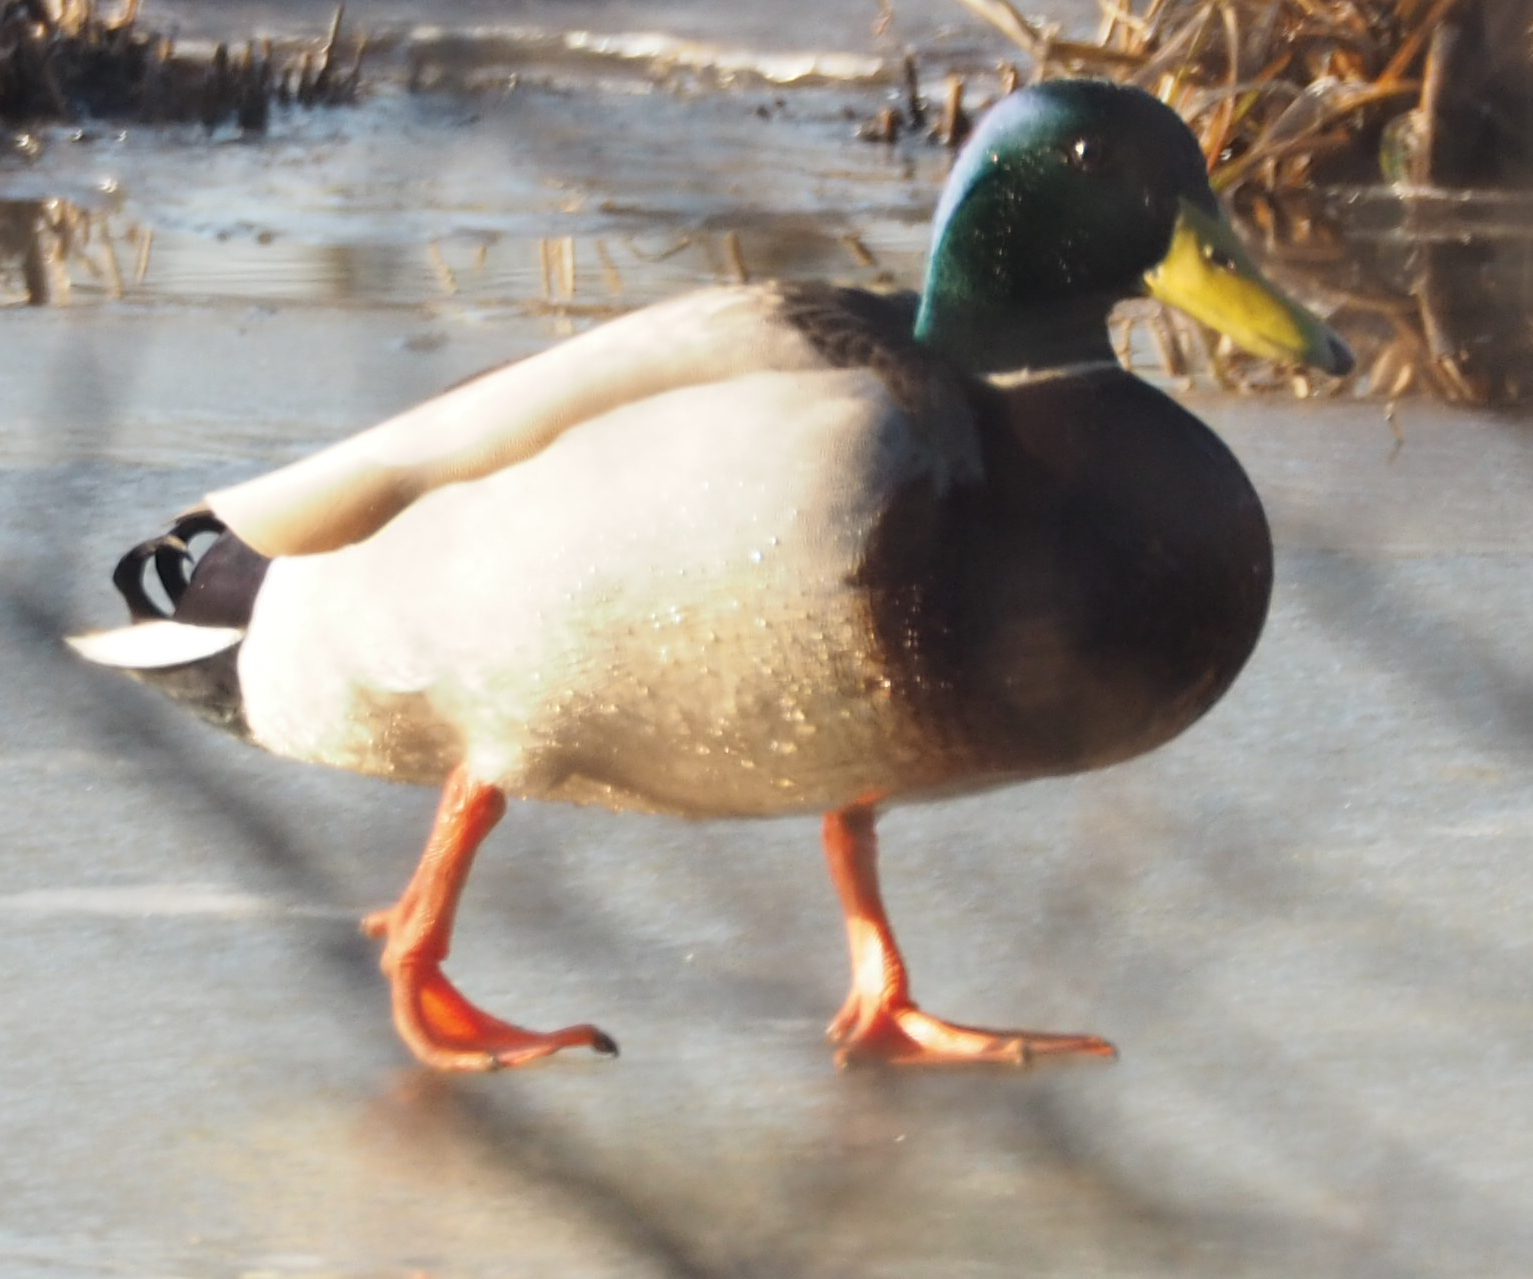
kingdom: Animalia
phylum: Chordata
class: Aves
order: Anseriformes
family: Anatidae
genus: Anas
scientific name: Anas platyrhynchos
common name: Mallard
